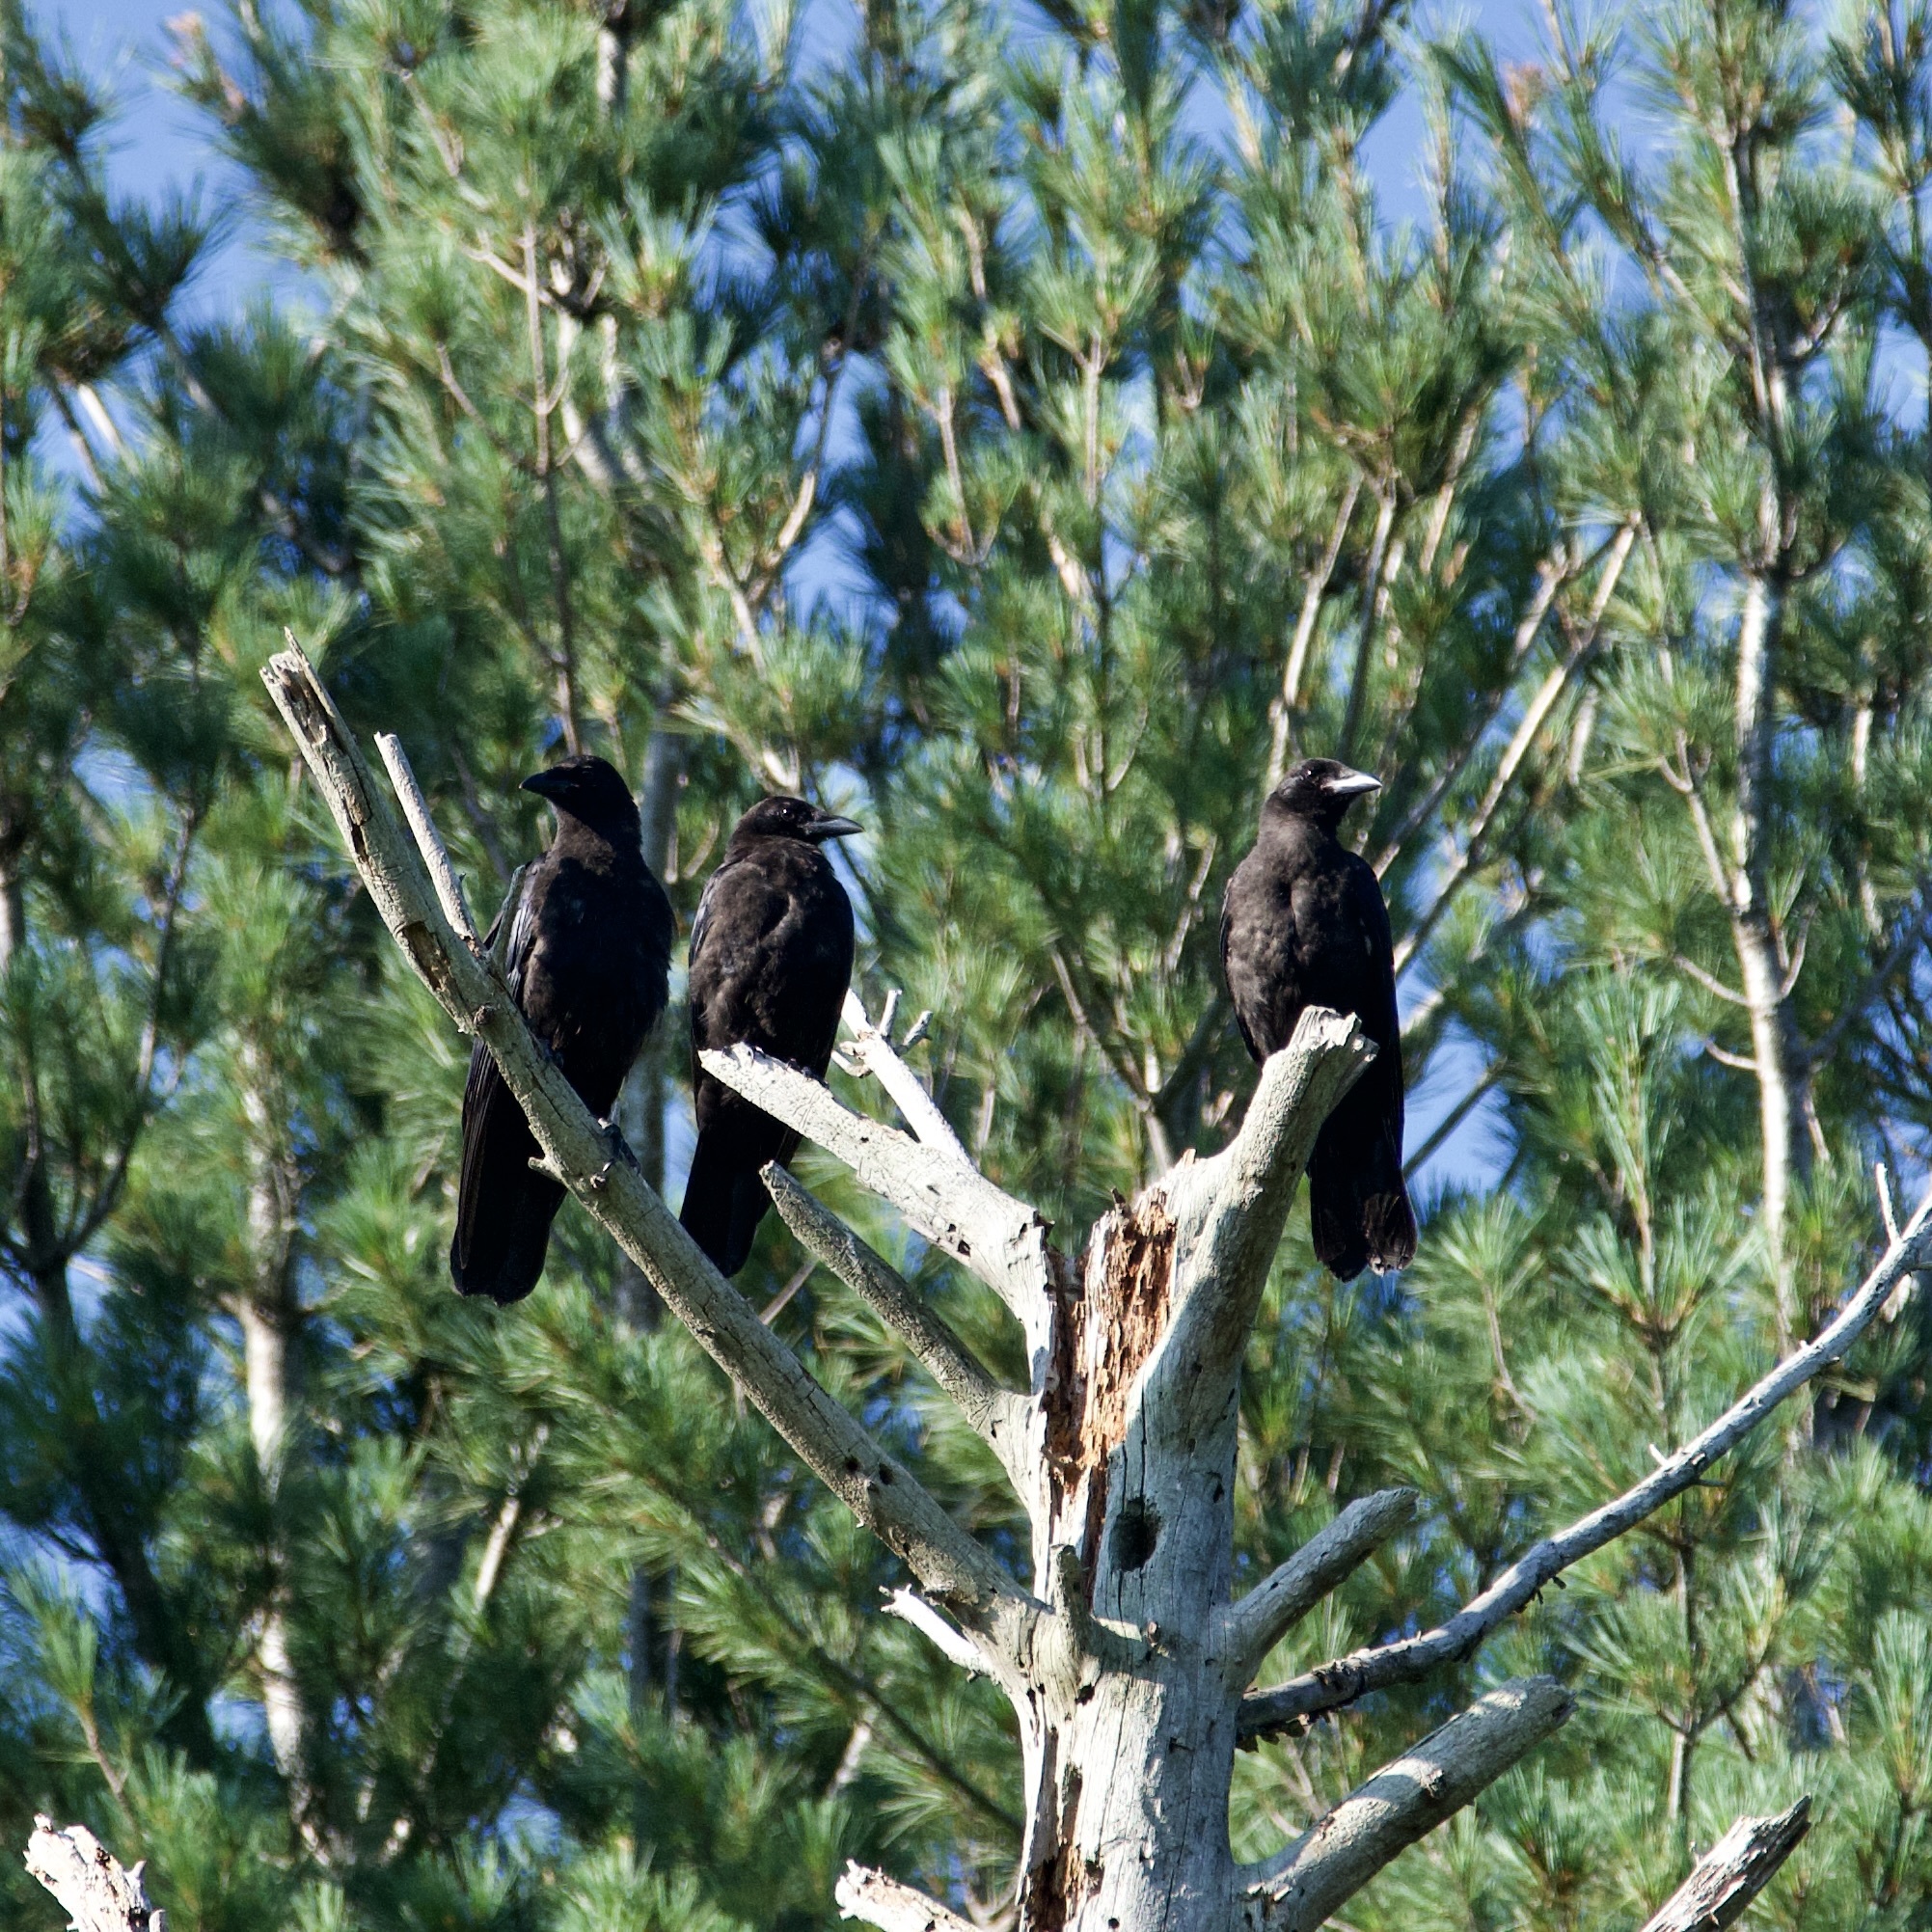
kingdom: Animalia
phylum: Chordata
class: Aves
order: Passeriformes
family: Corvidae
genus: Corvus
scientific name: Corvus brachyrhynchos
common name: American crow
